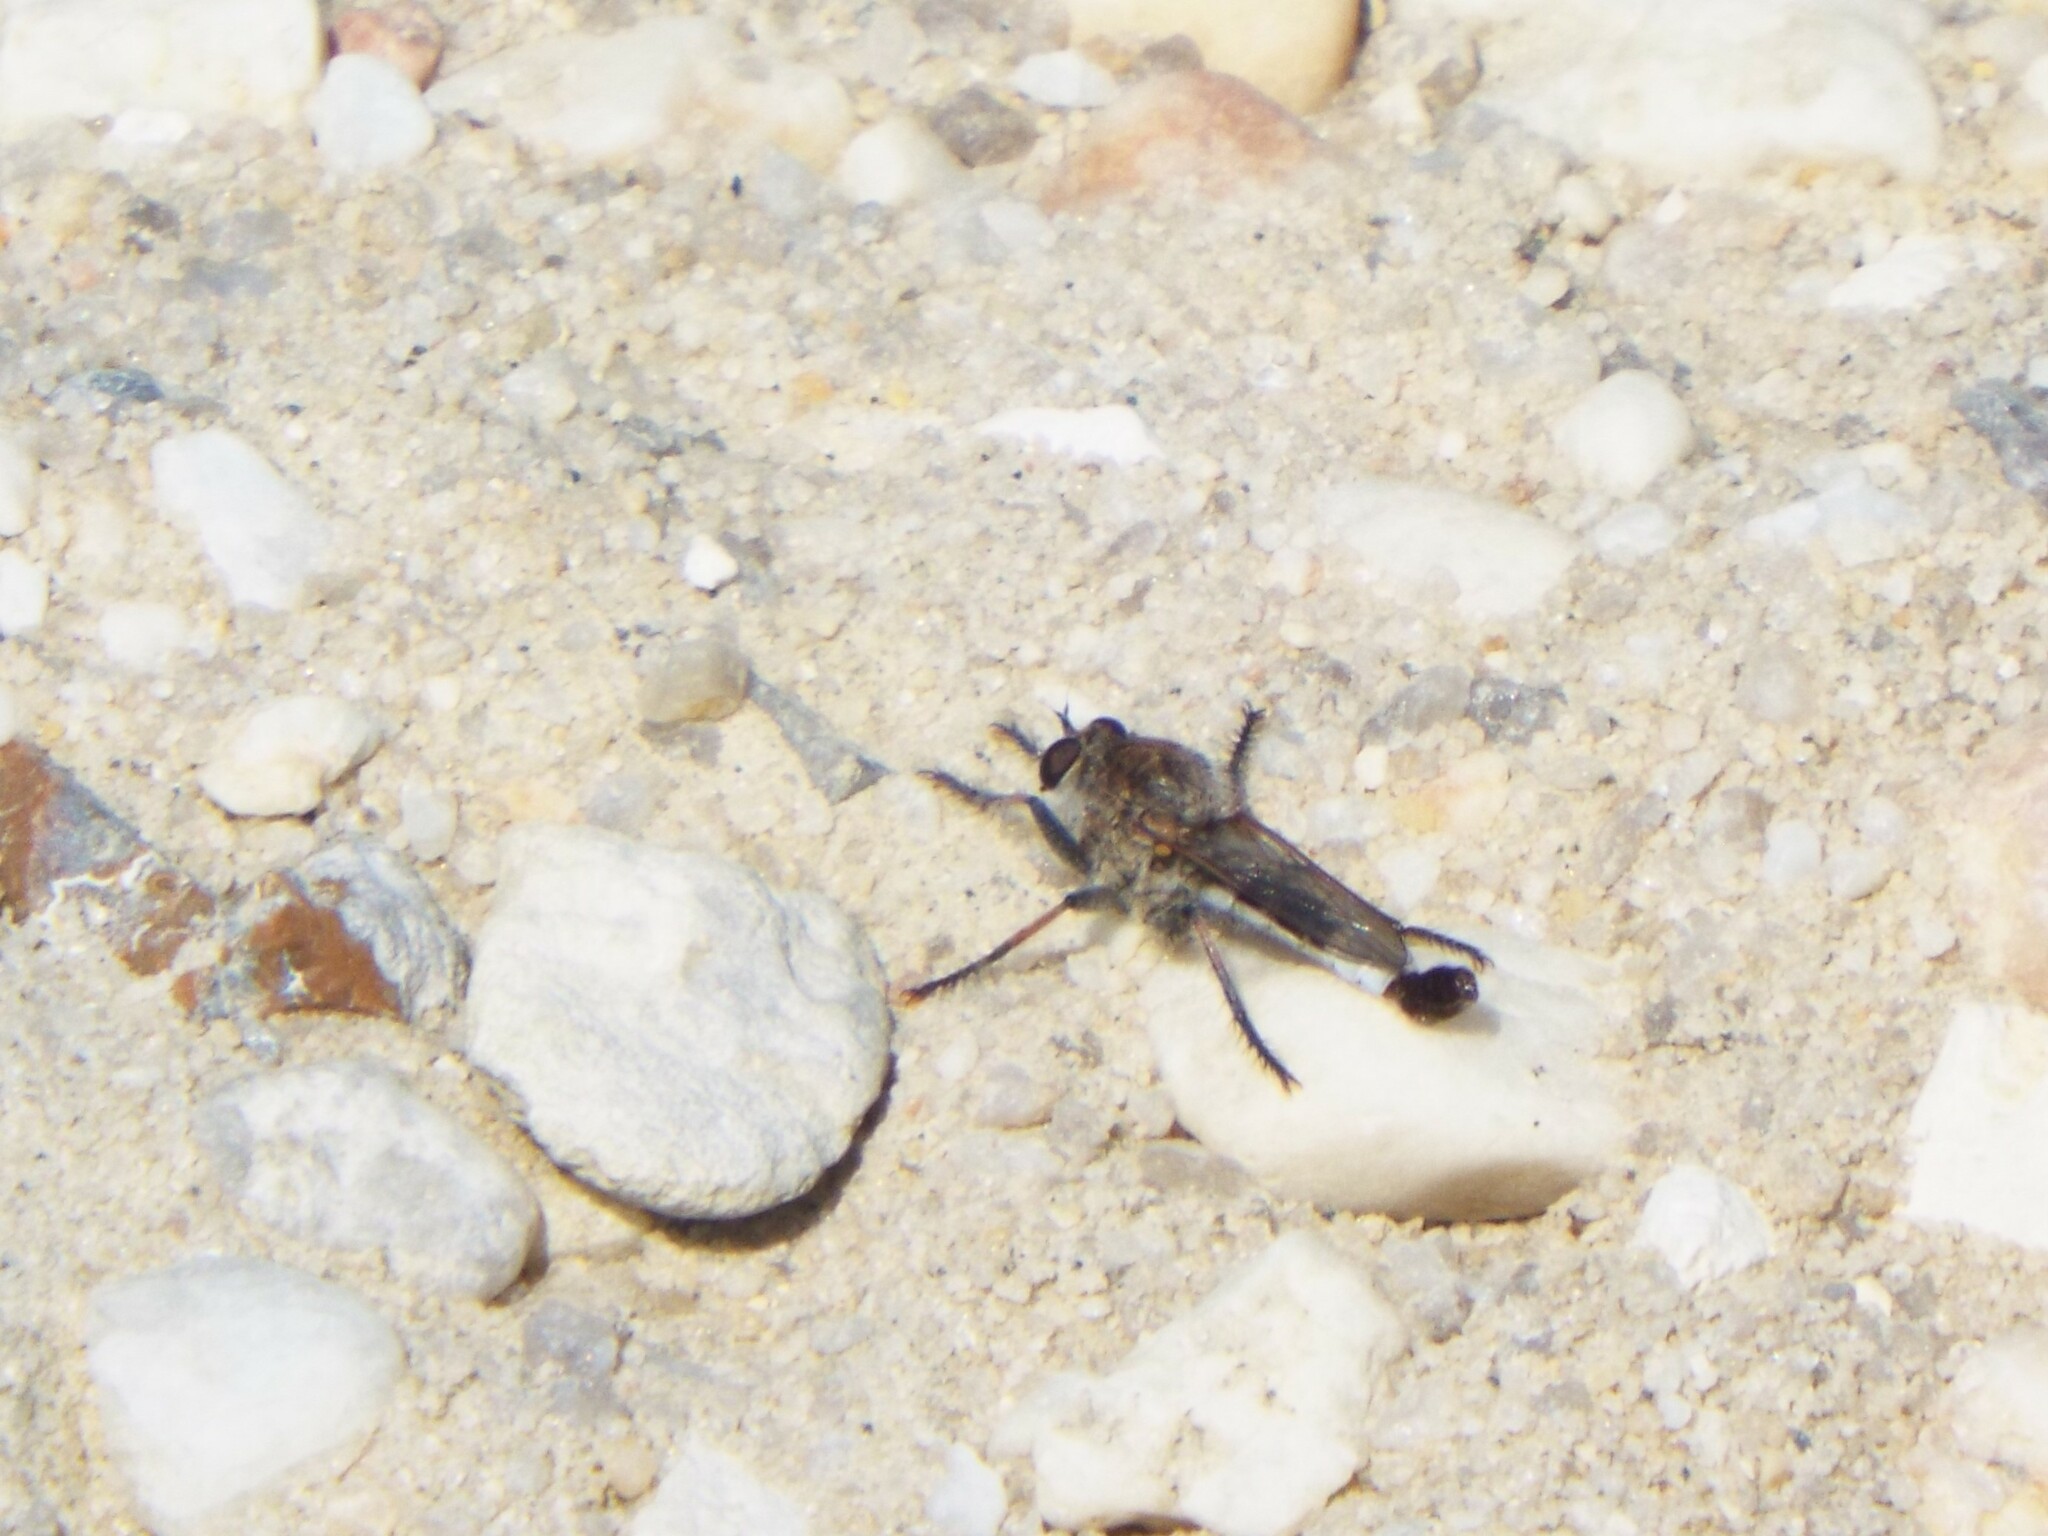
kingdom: Animalia
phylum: Arthropoda
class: Insecta
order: Diptera
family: Asilidae
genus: Efferia
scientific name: Efferia albibarbis
